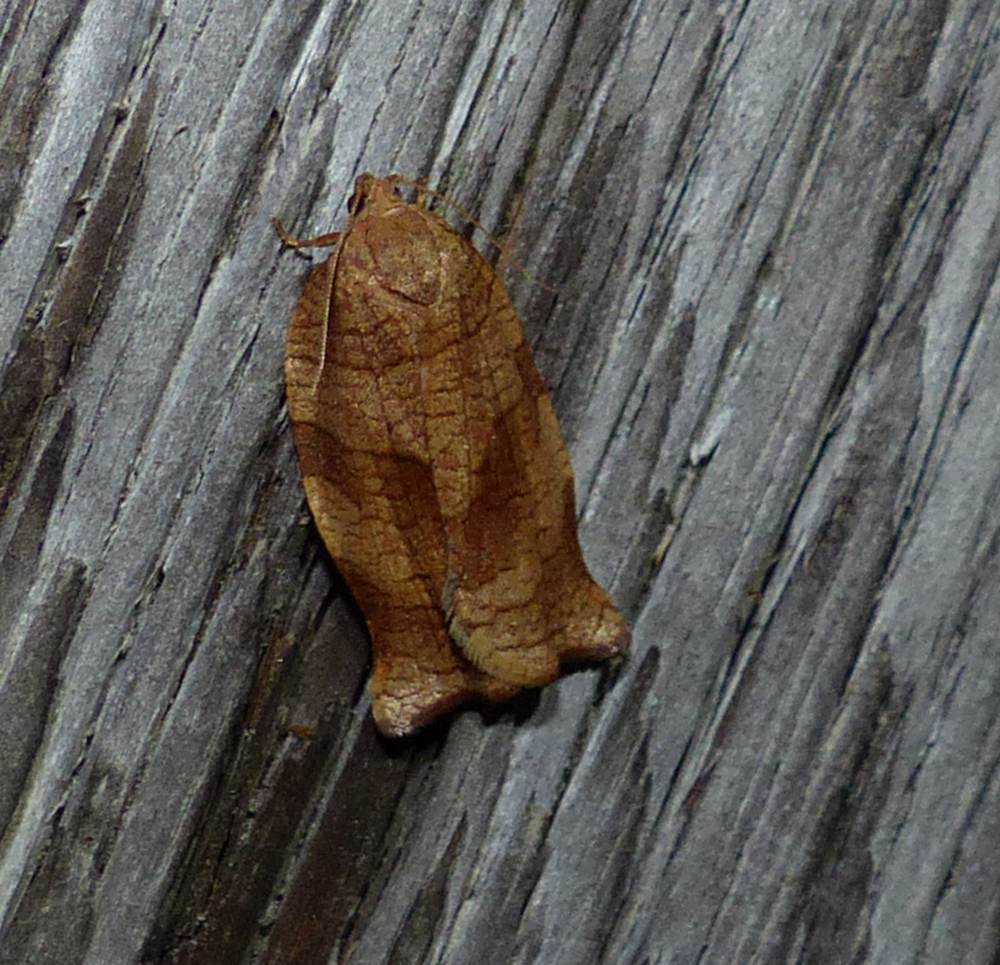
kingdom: Animalia
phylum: Arthropoda
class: Insecta
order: Lepidoptera
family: Tortricidae
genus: Choristoneura
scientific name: Choristoneura rosaceana
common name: Oblique-banded leafroller moth
